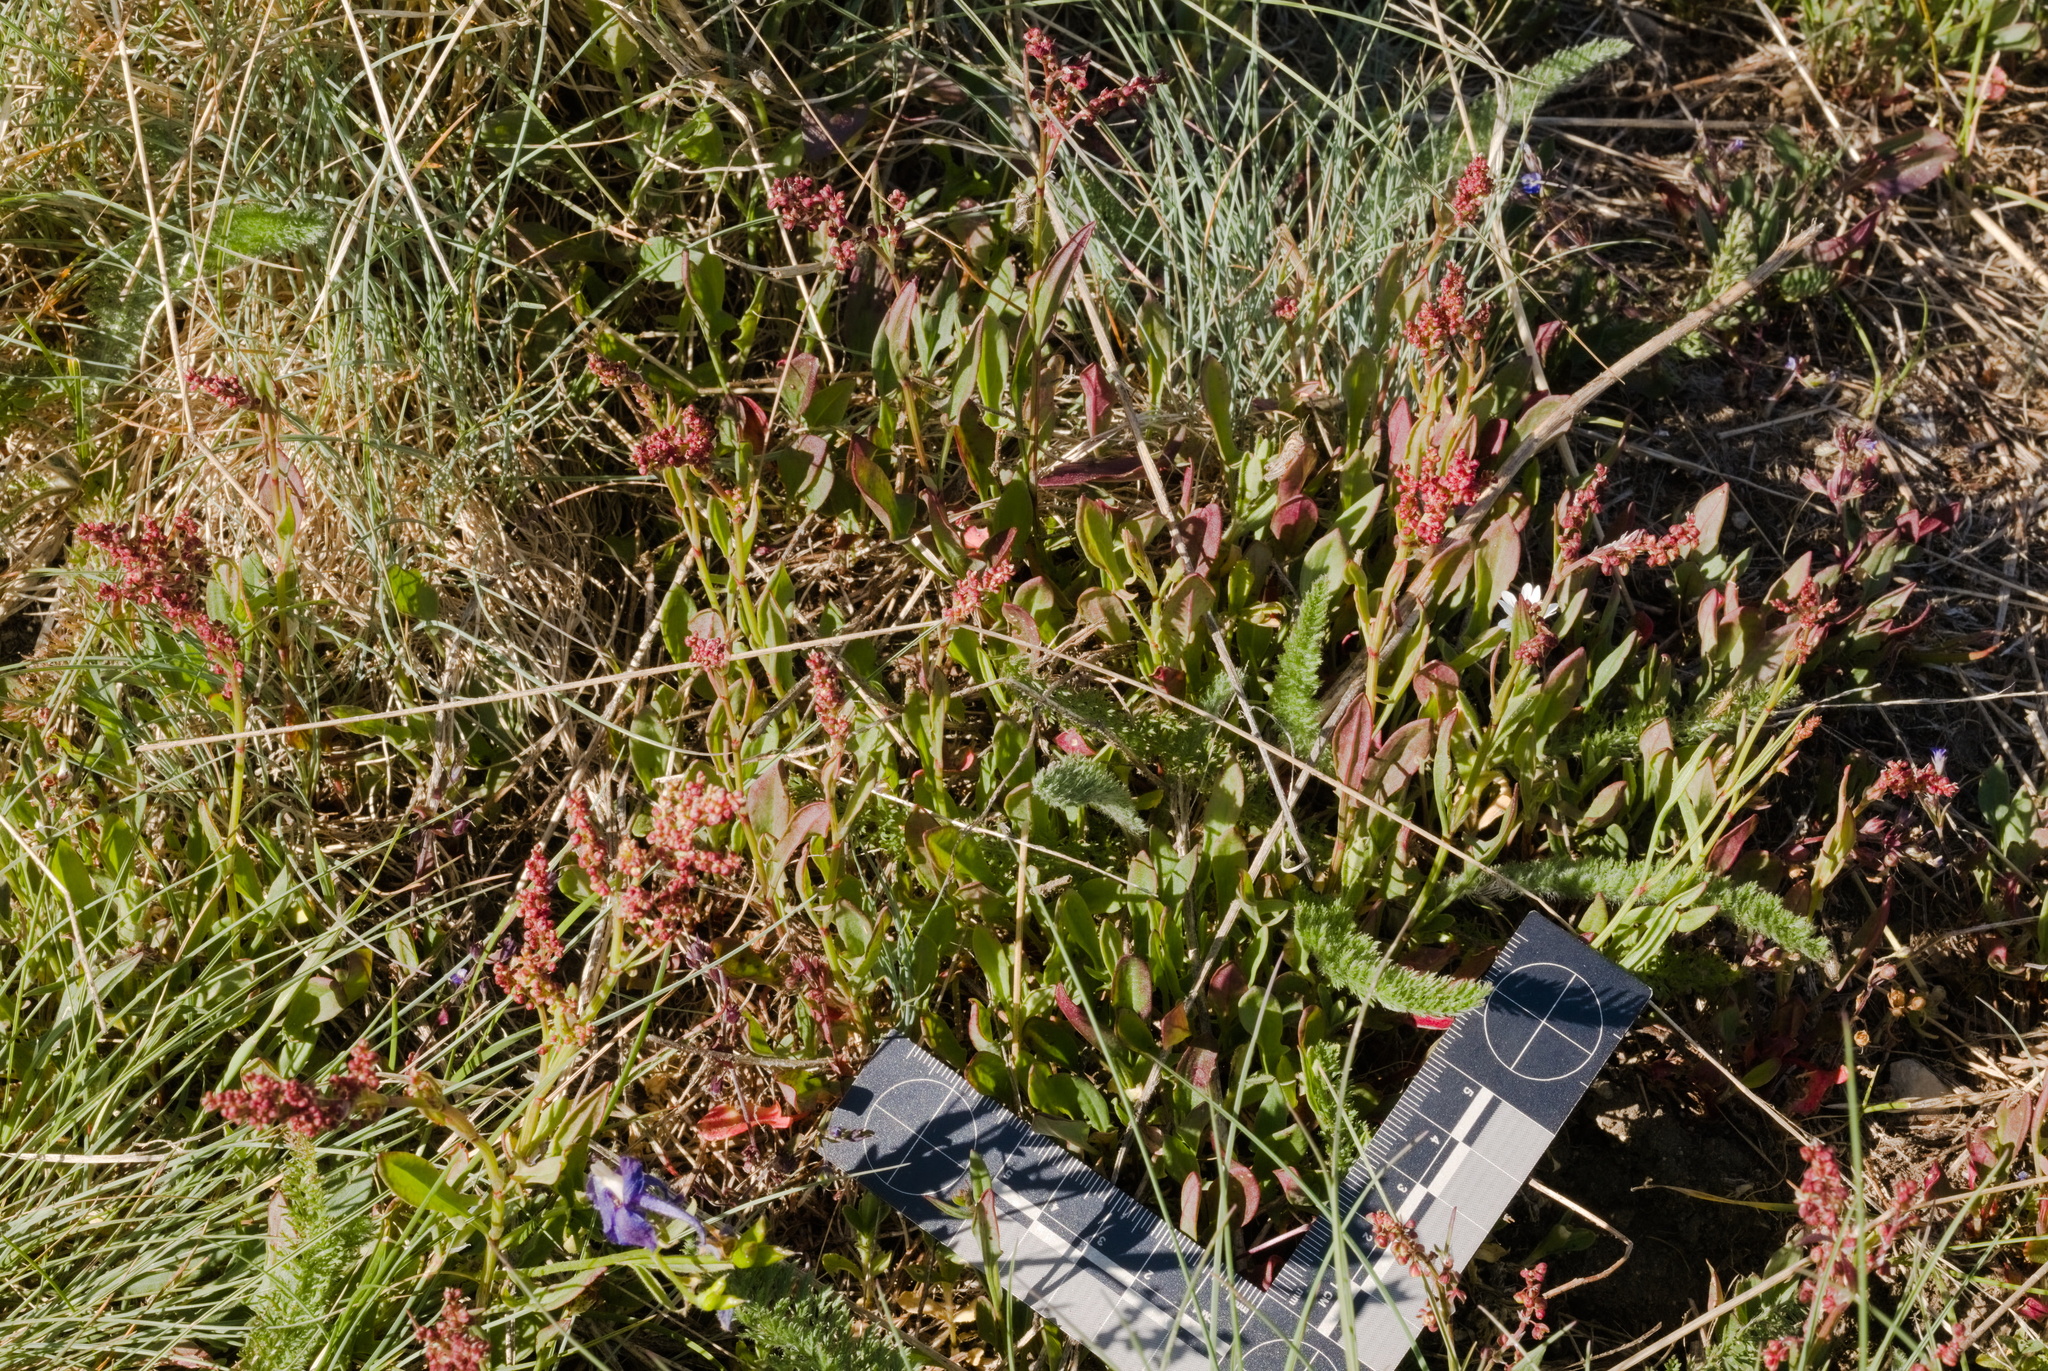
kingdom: Plantae
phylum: Tracheophyta
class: Magnoliopsida
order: Caryophyllales
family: Polygonaceae
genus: Rumex
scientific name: Rumex acetosella
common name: Common sheep sorrel
